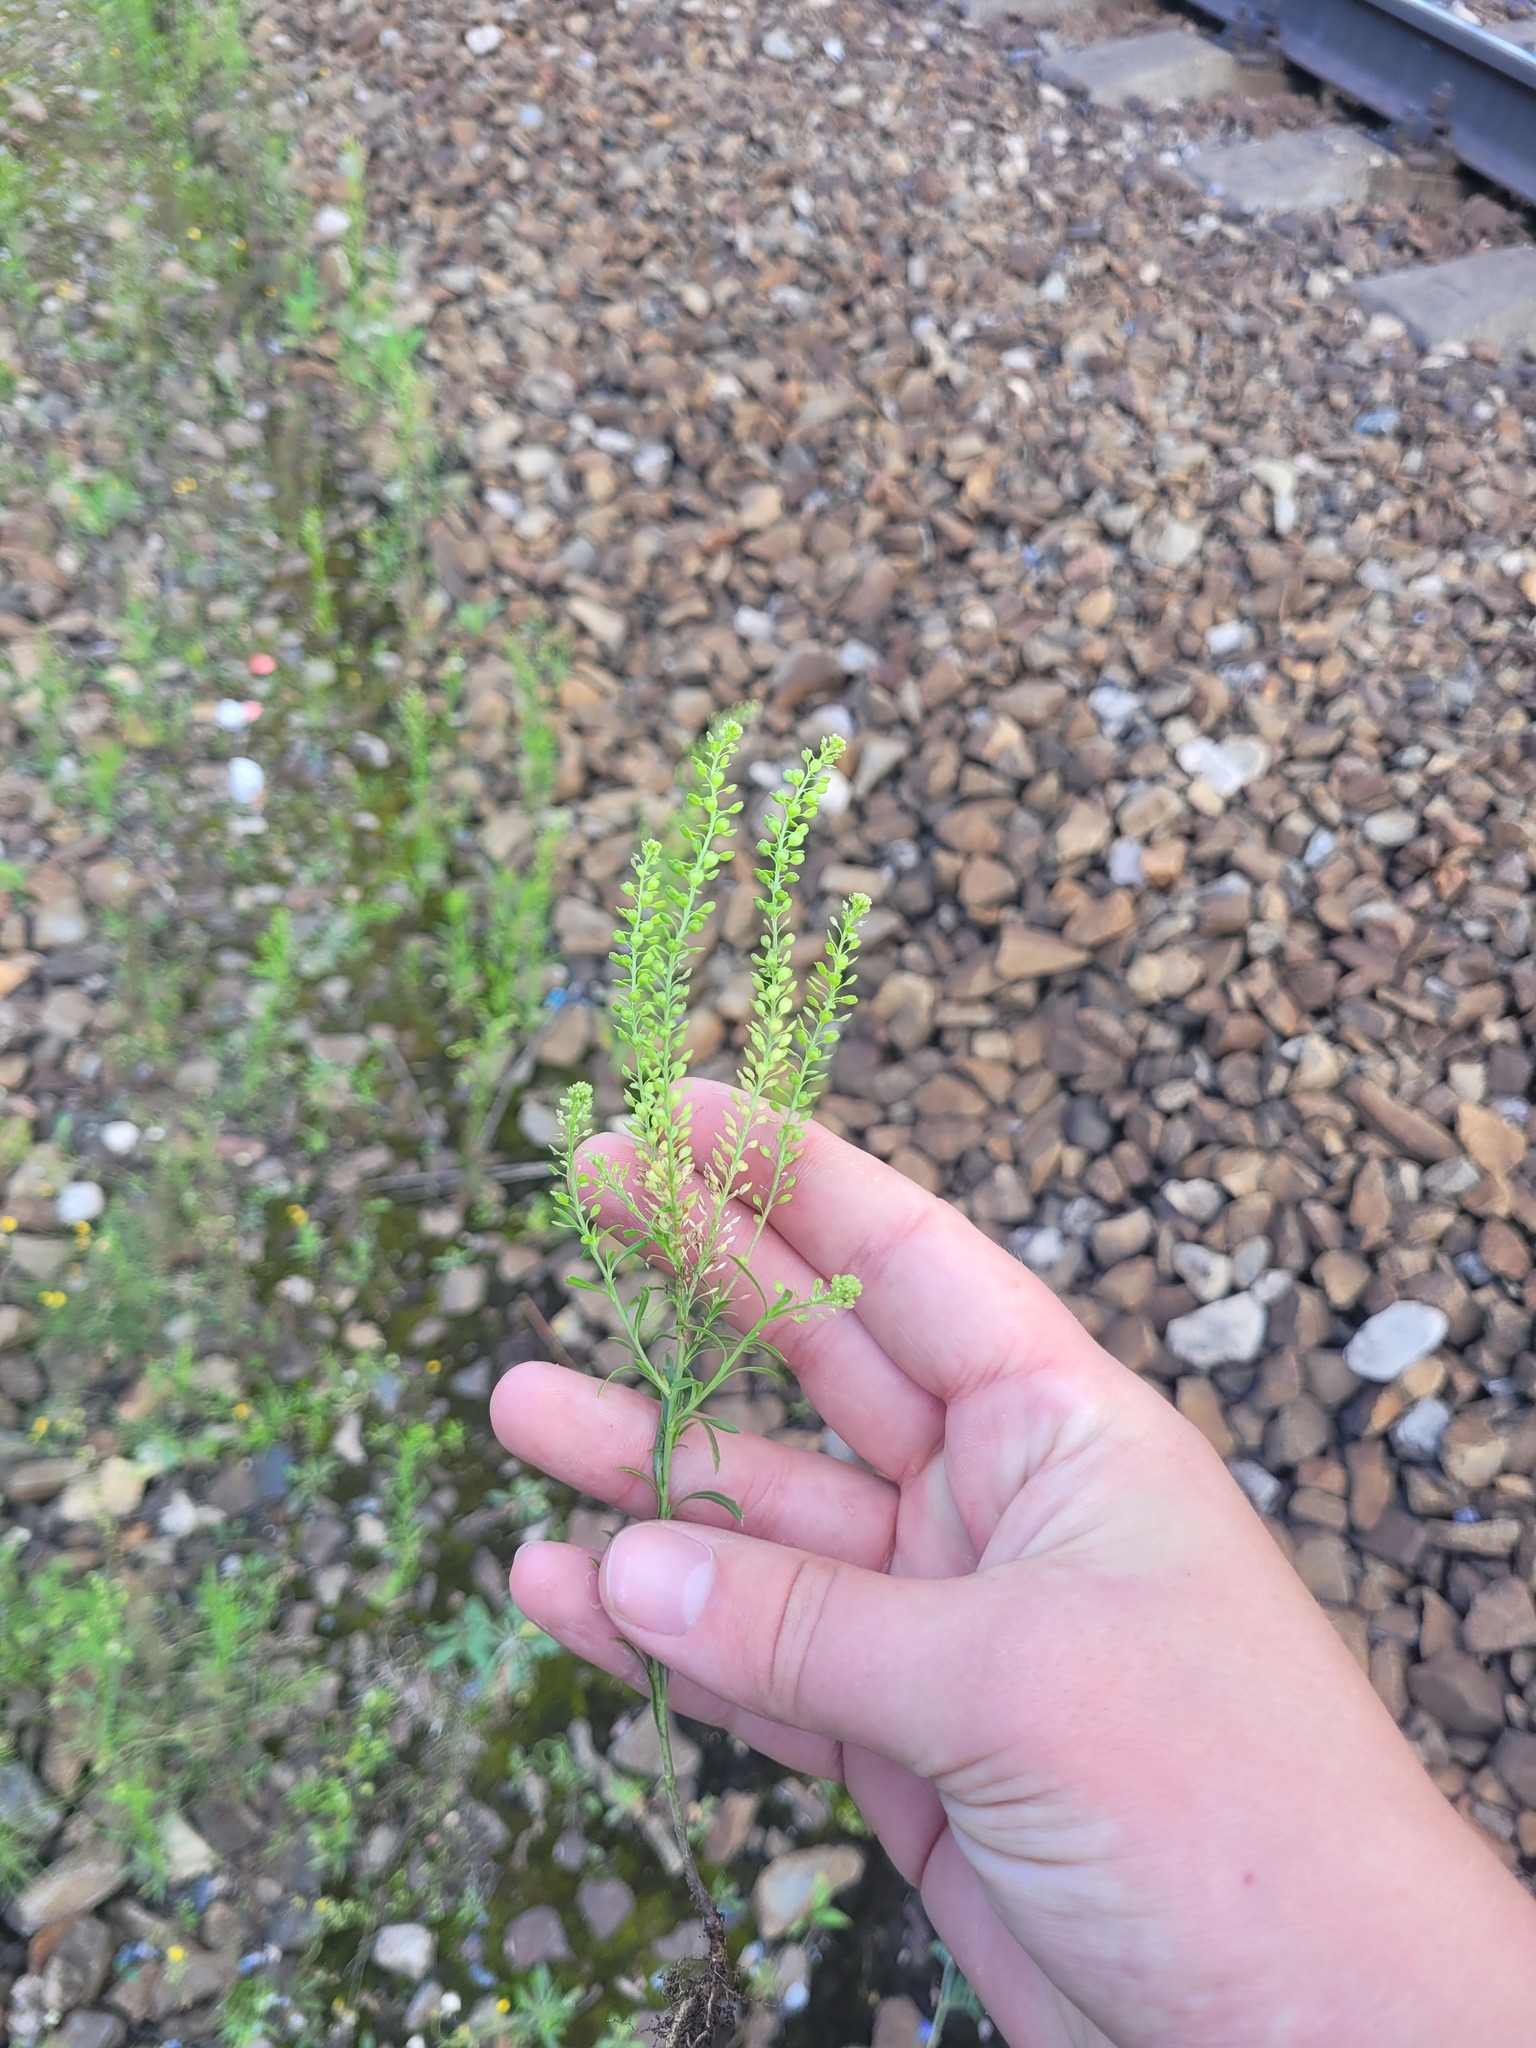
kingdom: Plantae
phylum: Tracheophyta
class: Magnoliopsida
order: Brassicales
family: Brassicaceae
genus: Lepidium
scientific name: Lepidium densiflorum
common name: Miner's pepperwort
